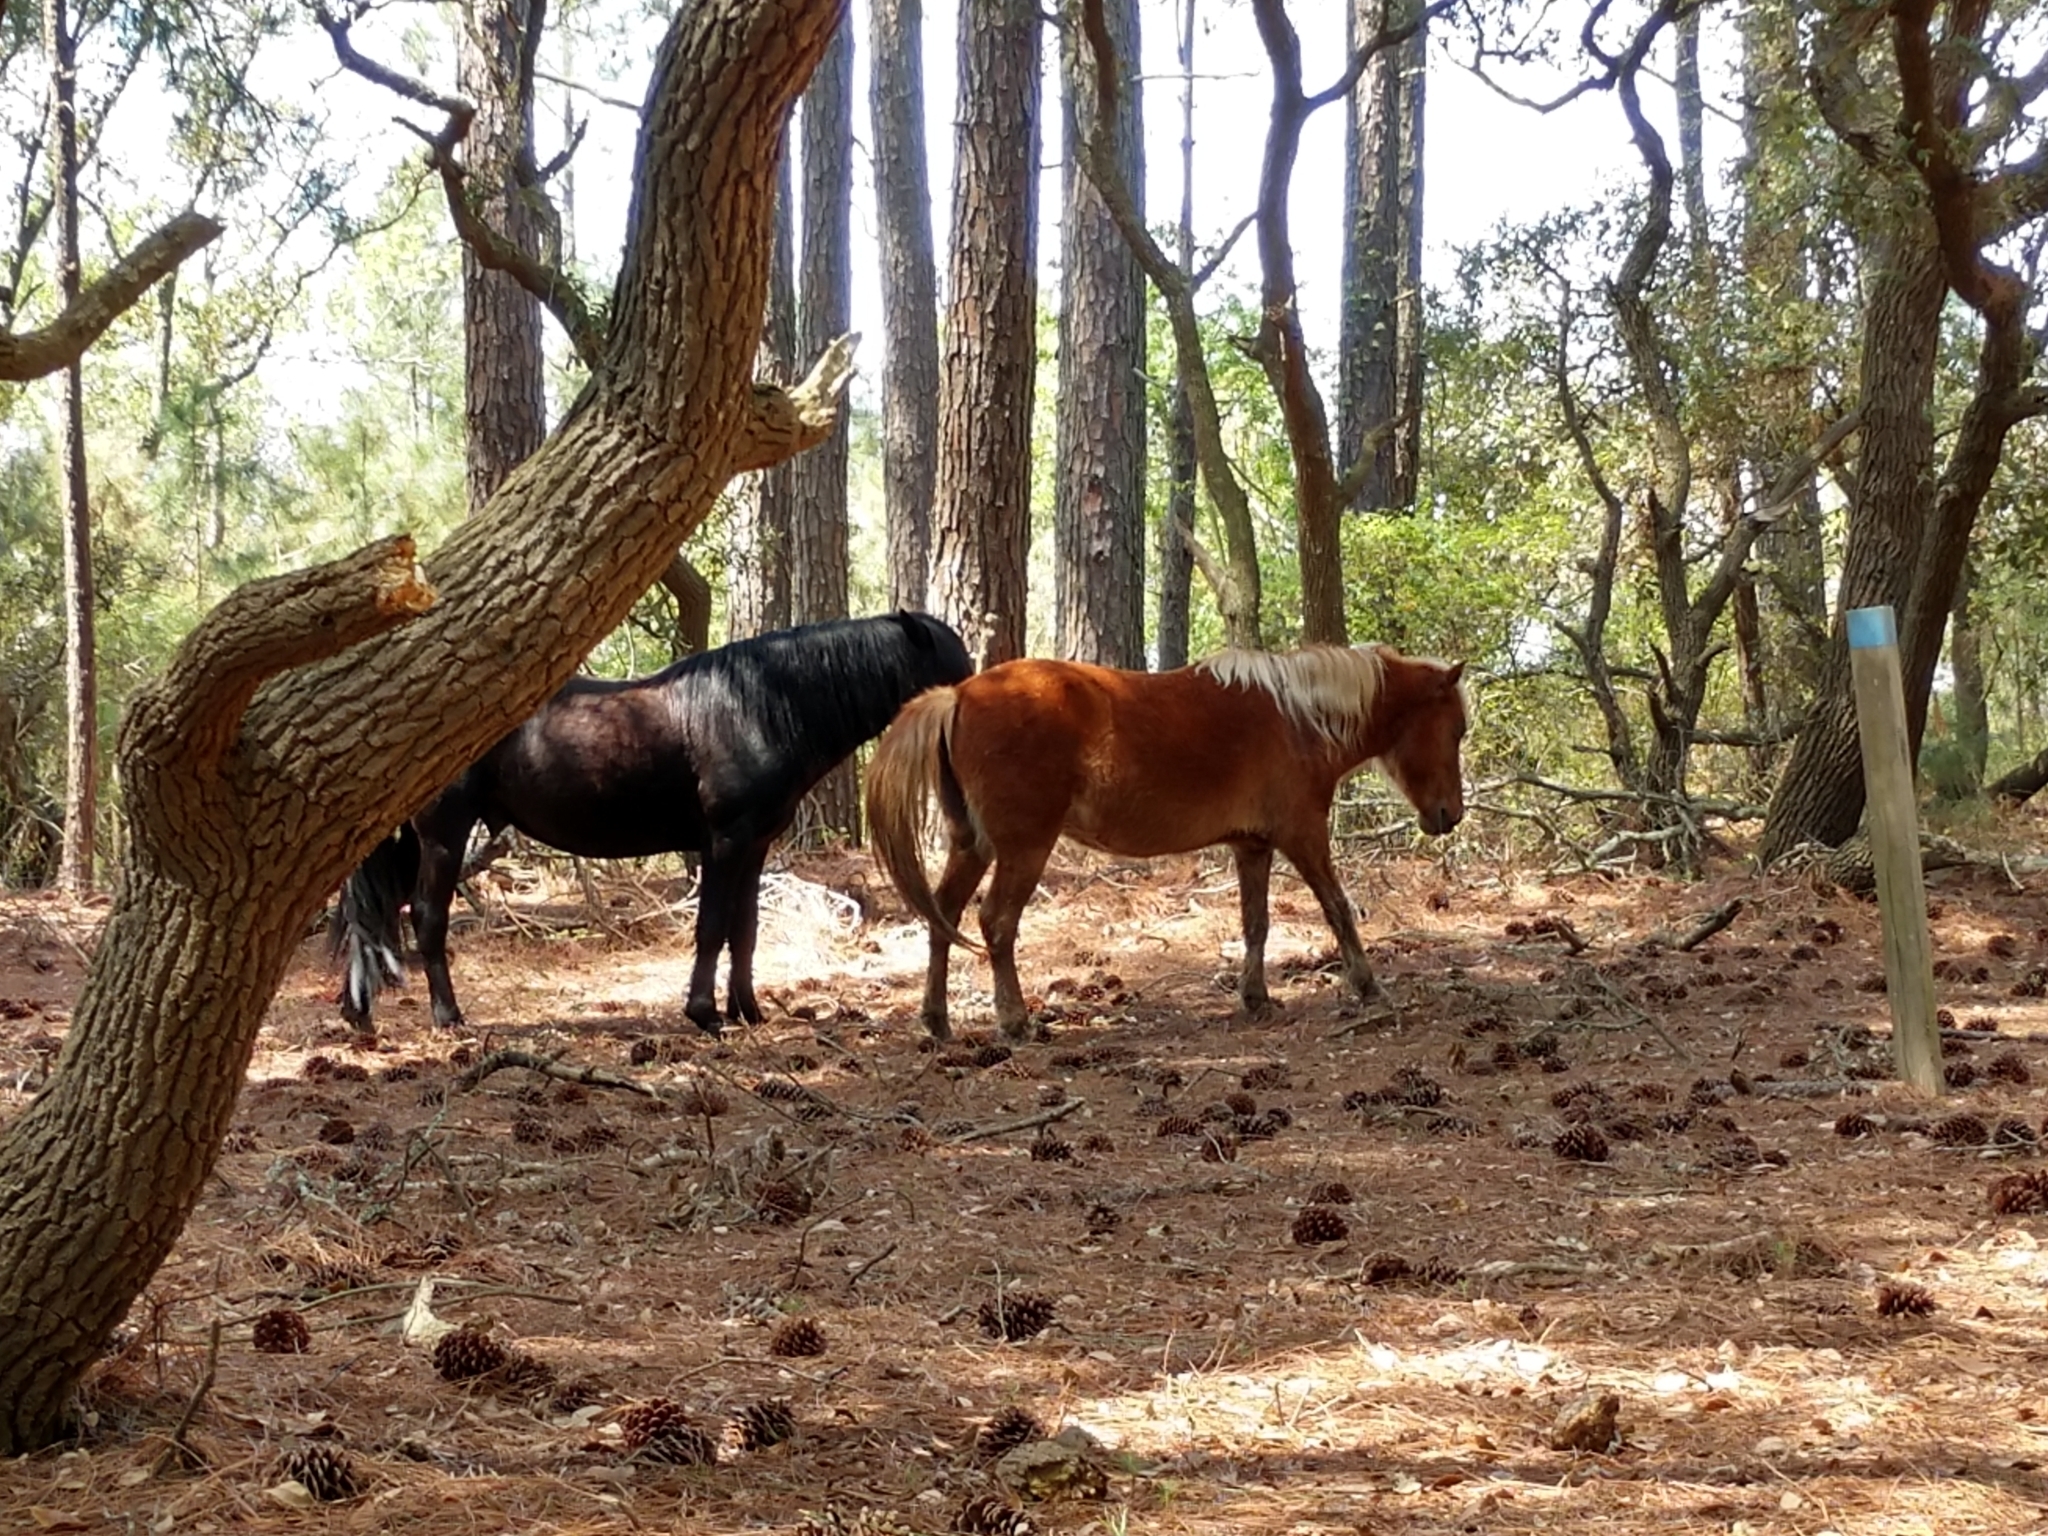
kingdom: Animalia
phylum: Chordata
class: Mammalia
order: Perissodactyla
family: Equidae
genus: Equus
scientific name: Equus caballus
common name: Horse
